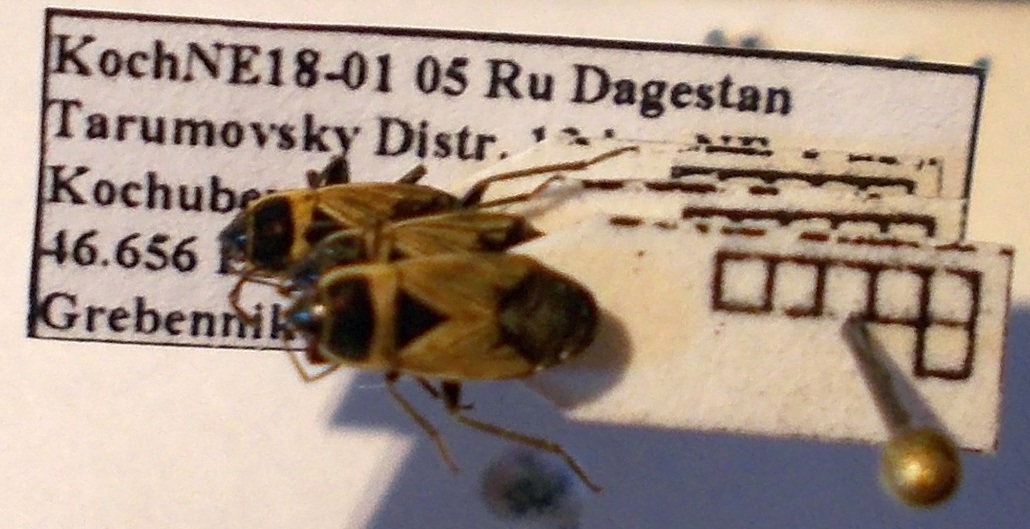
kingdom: Animalia
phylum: Arthropoda
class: Insecta
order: Hemiptera
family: Rhyparochromidae
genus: Bleteogonus
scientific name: Bleteogonus beckeri
